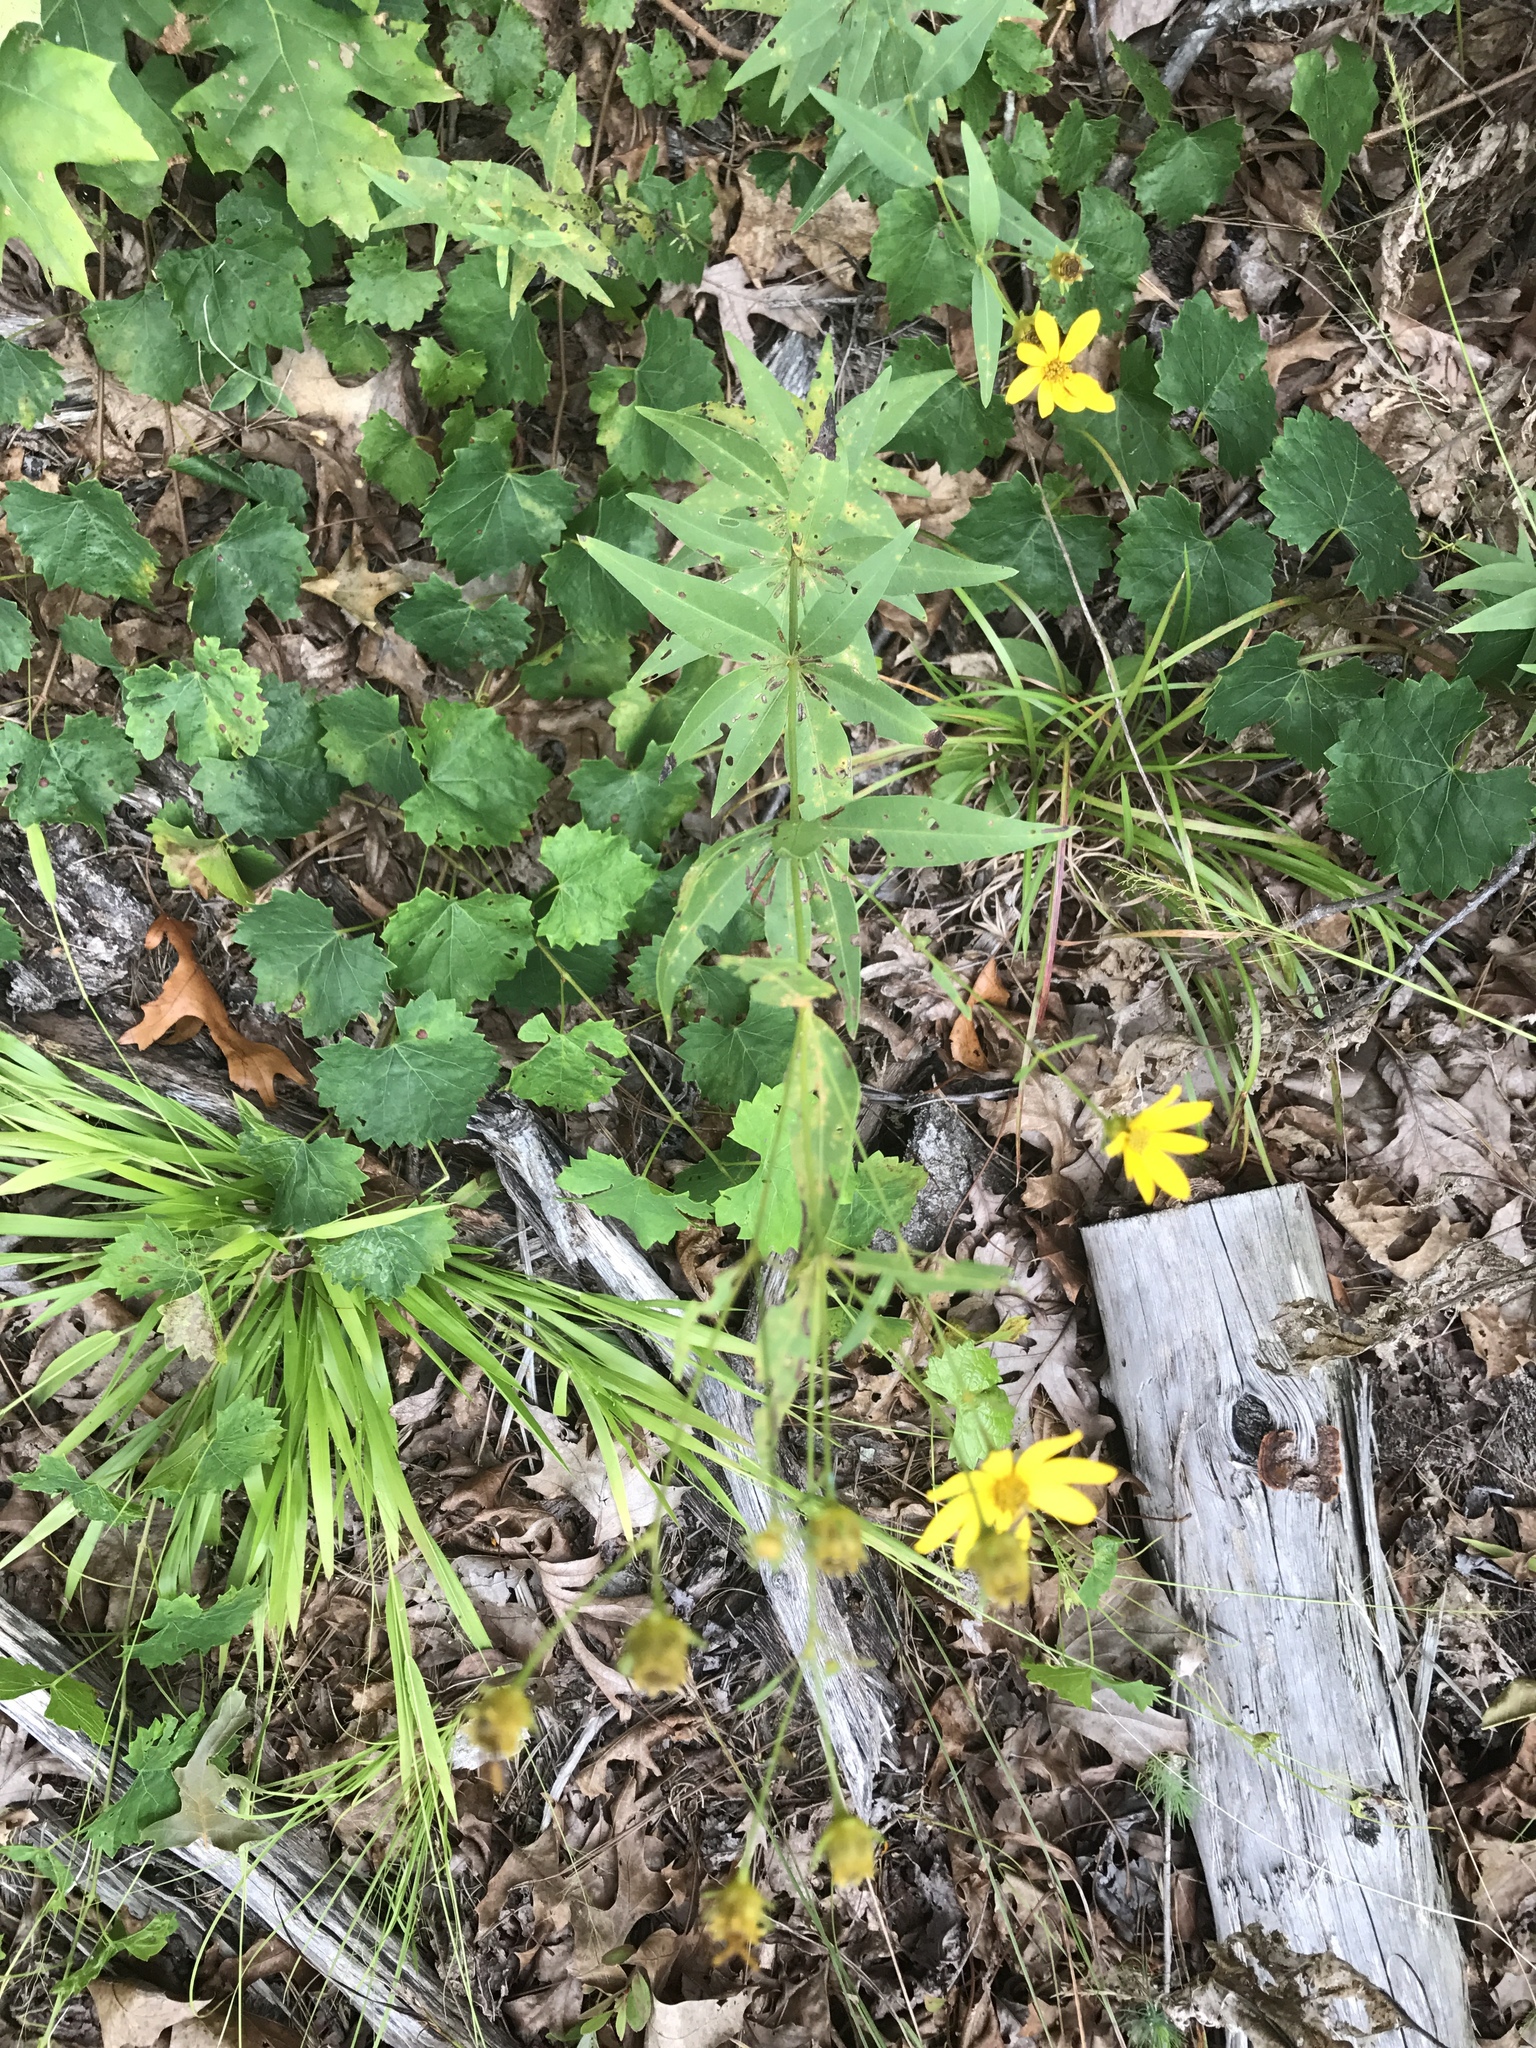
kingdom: Plantae
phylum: Tracheophyta
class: Magnoliopsida
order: Asterales
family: Asteraceae
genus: Coreopsis
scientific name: Coreopsis major
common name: Forest tickseed
